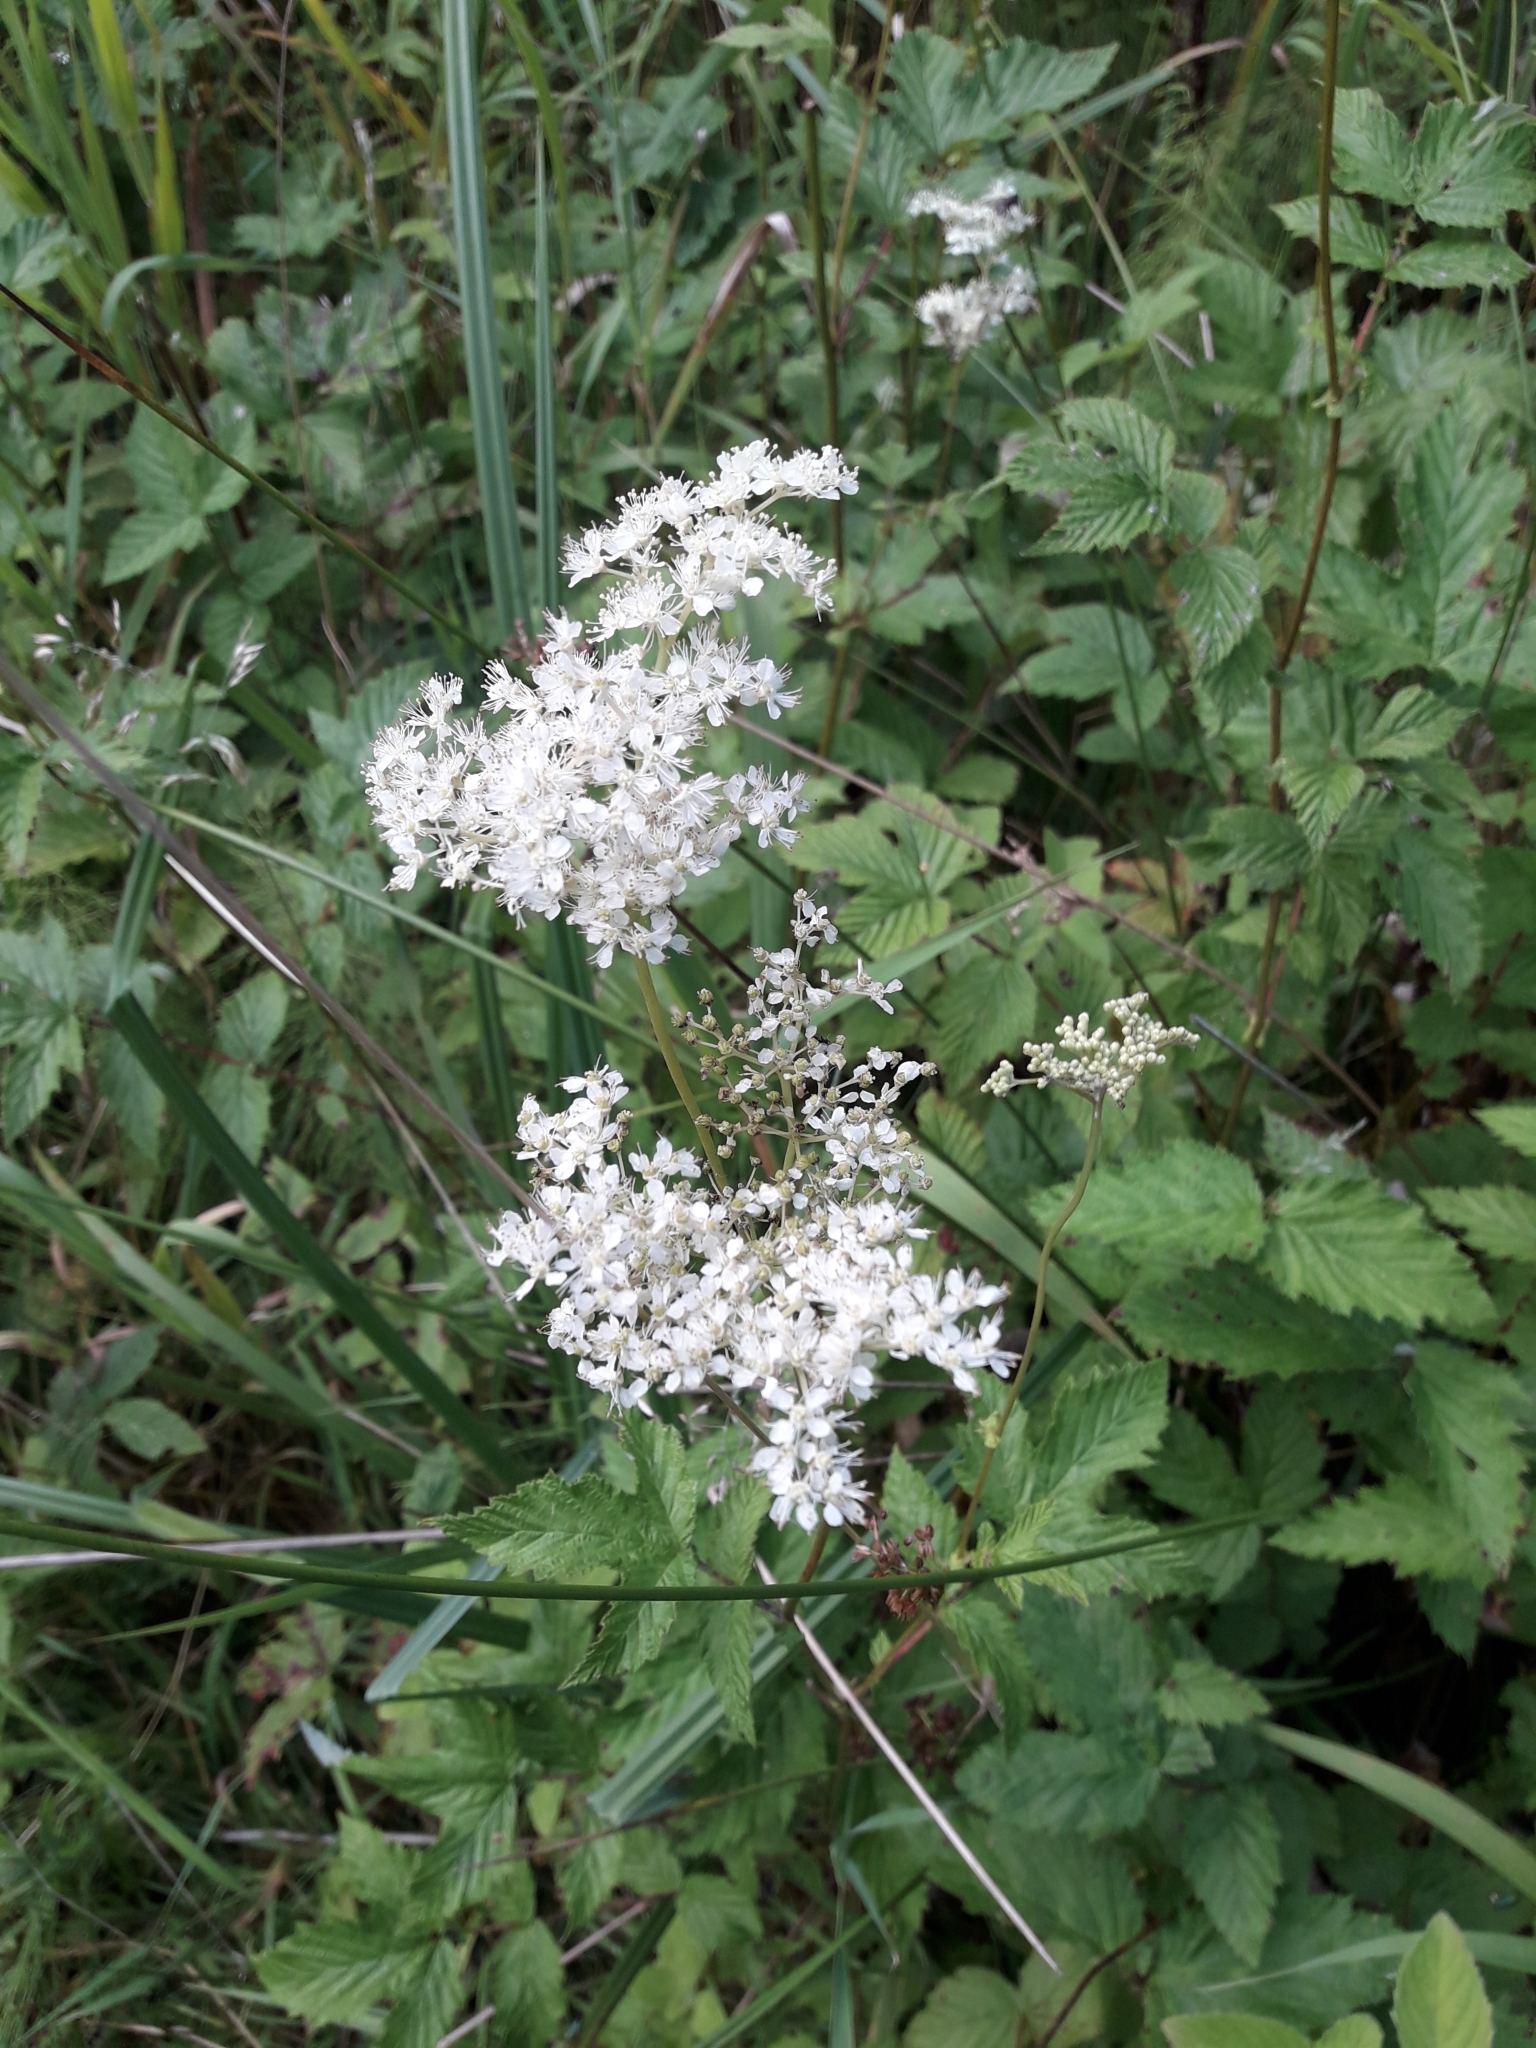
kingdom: Plantae
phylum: Tracheophyta
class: Magnoliopsida
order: Rosales
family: Rosaceae
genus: Filipendula
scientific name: Filipendula ulmaria
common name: Meadowsweet
